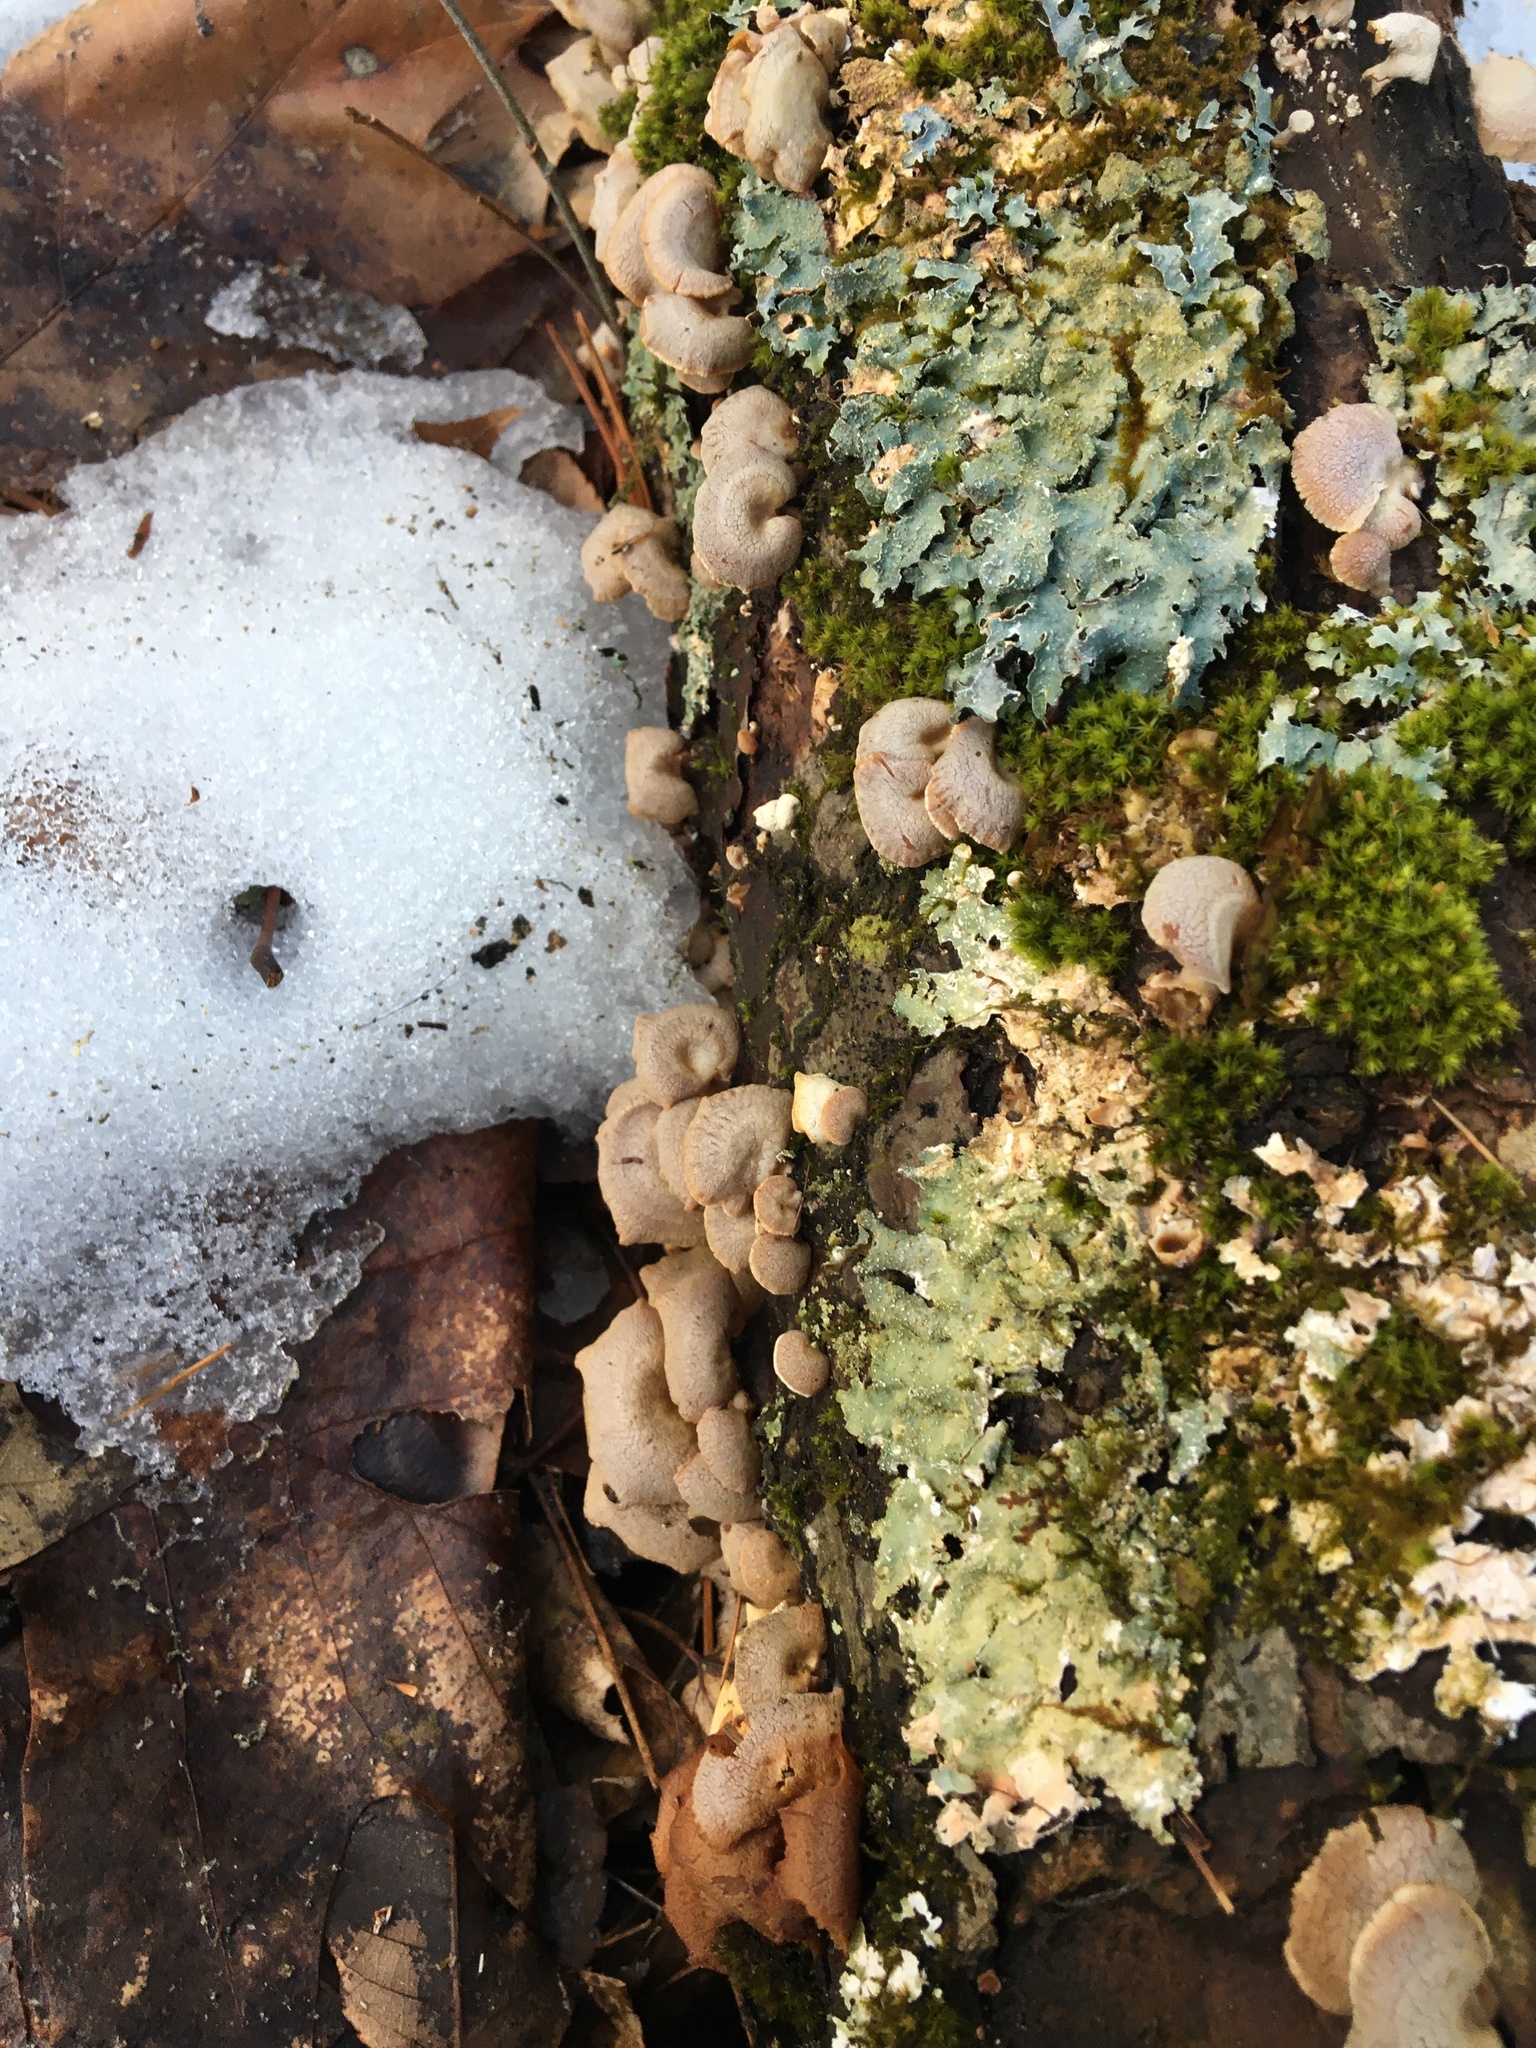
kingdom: Fungi
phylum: Basidiomycota
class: Agaricomycetes
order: Agaricales
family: Mycenaceae
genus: Panellus
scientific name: Panellus stipticus
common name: Bitter oysterling
